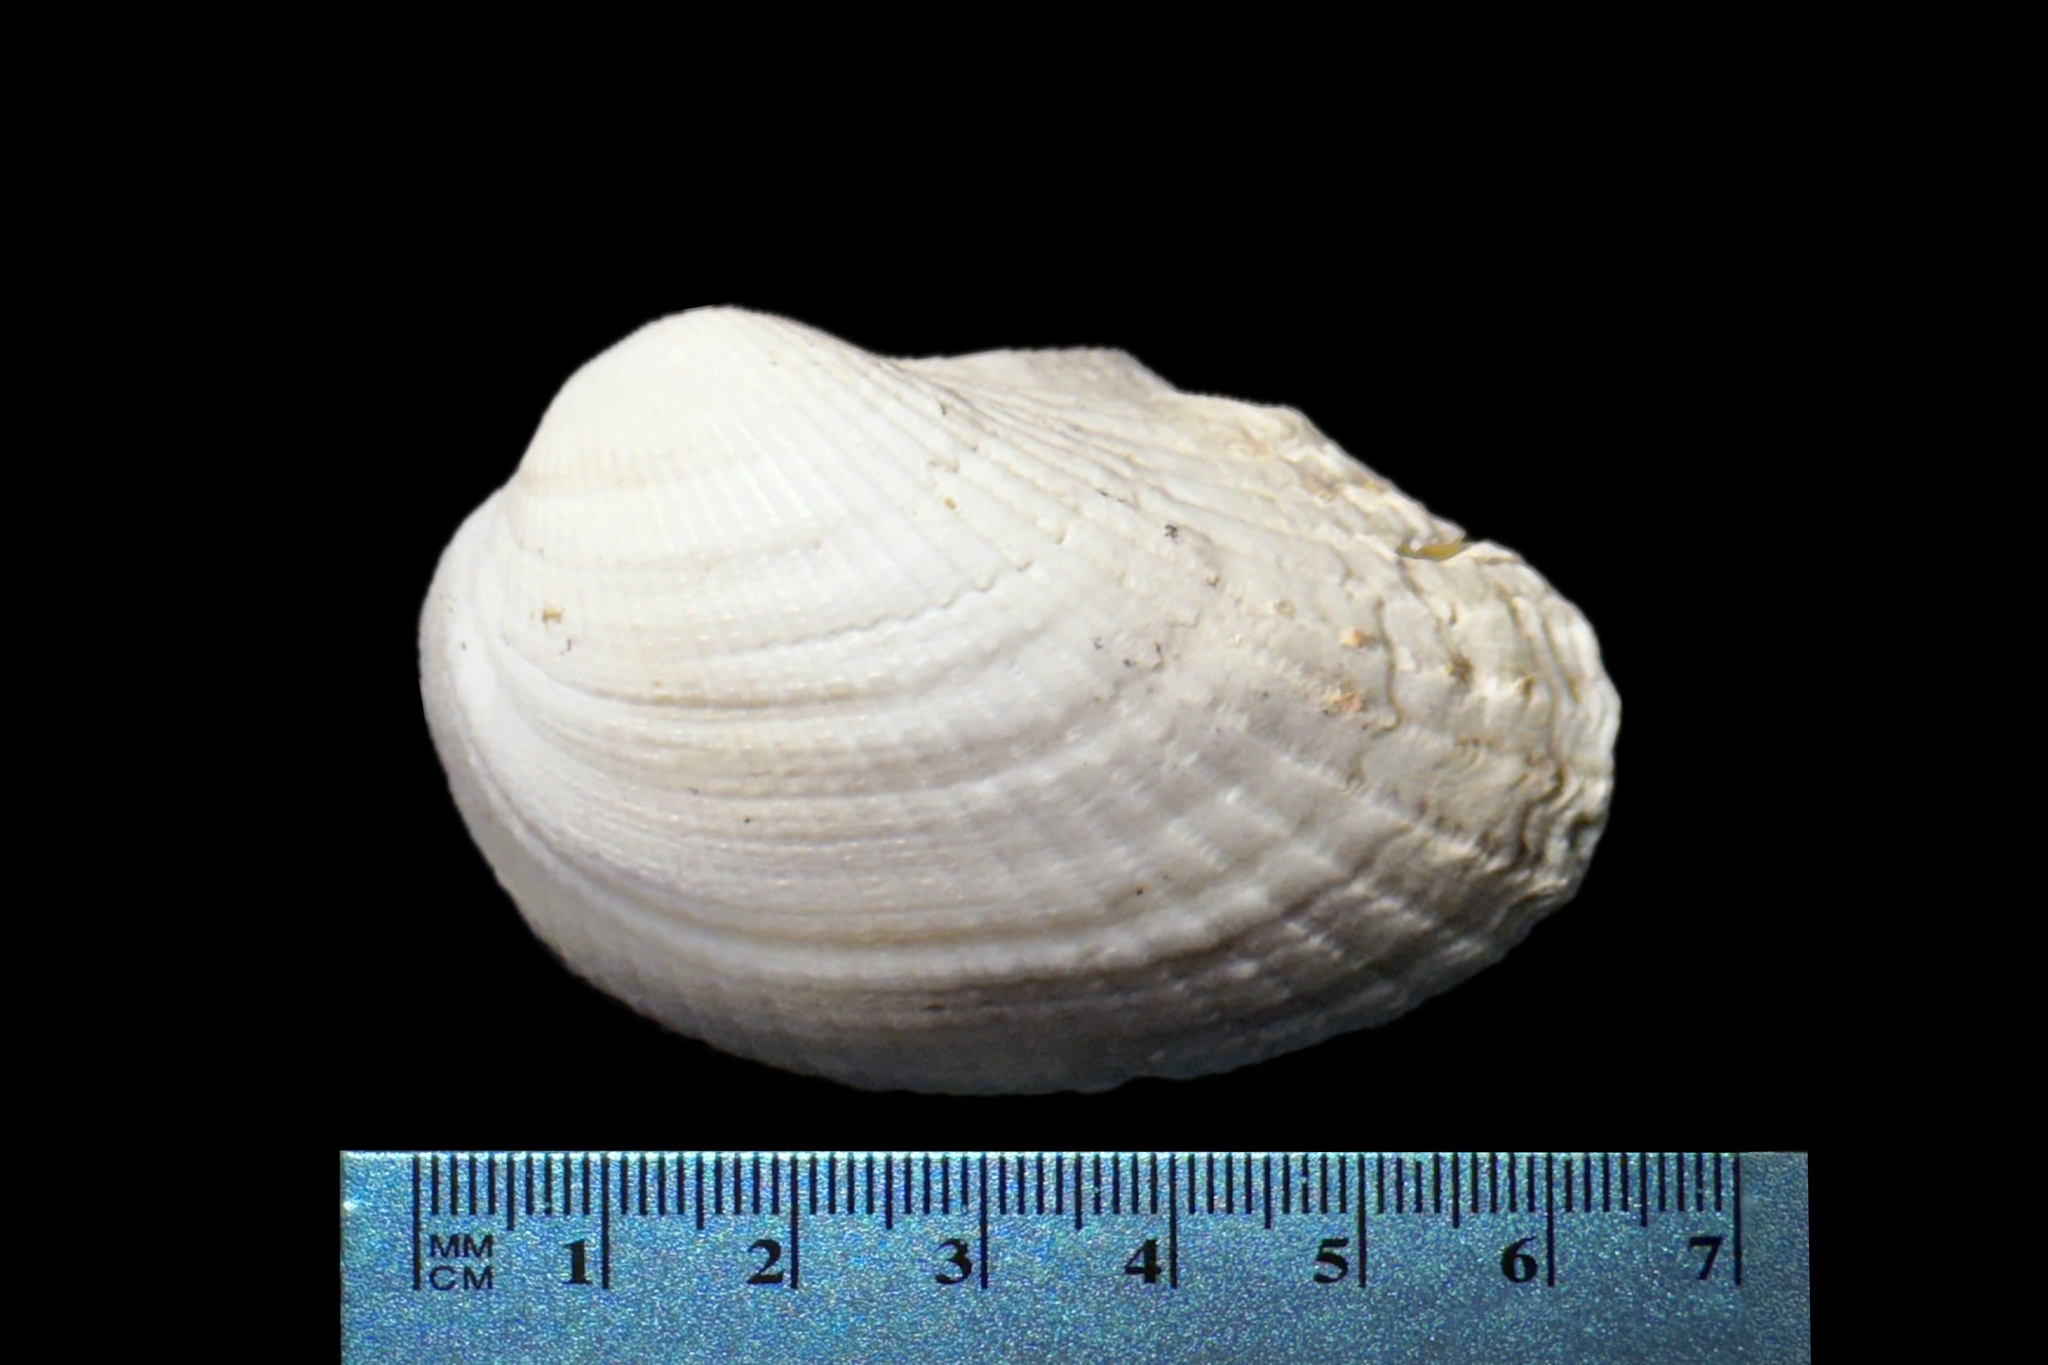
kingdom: Animalia
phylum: Mollusca
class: Bivalvia
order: Arcida
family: Arcidae
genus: Anadara
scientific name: Anadara notabilis
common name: Eared ark
